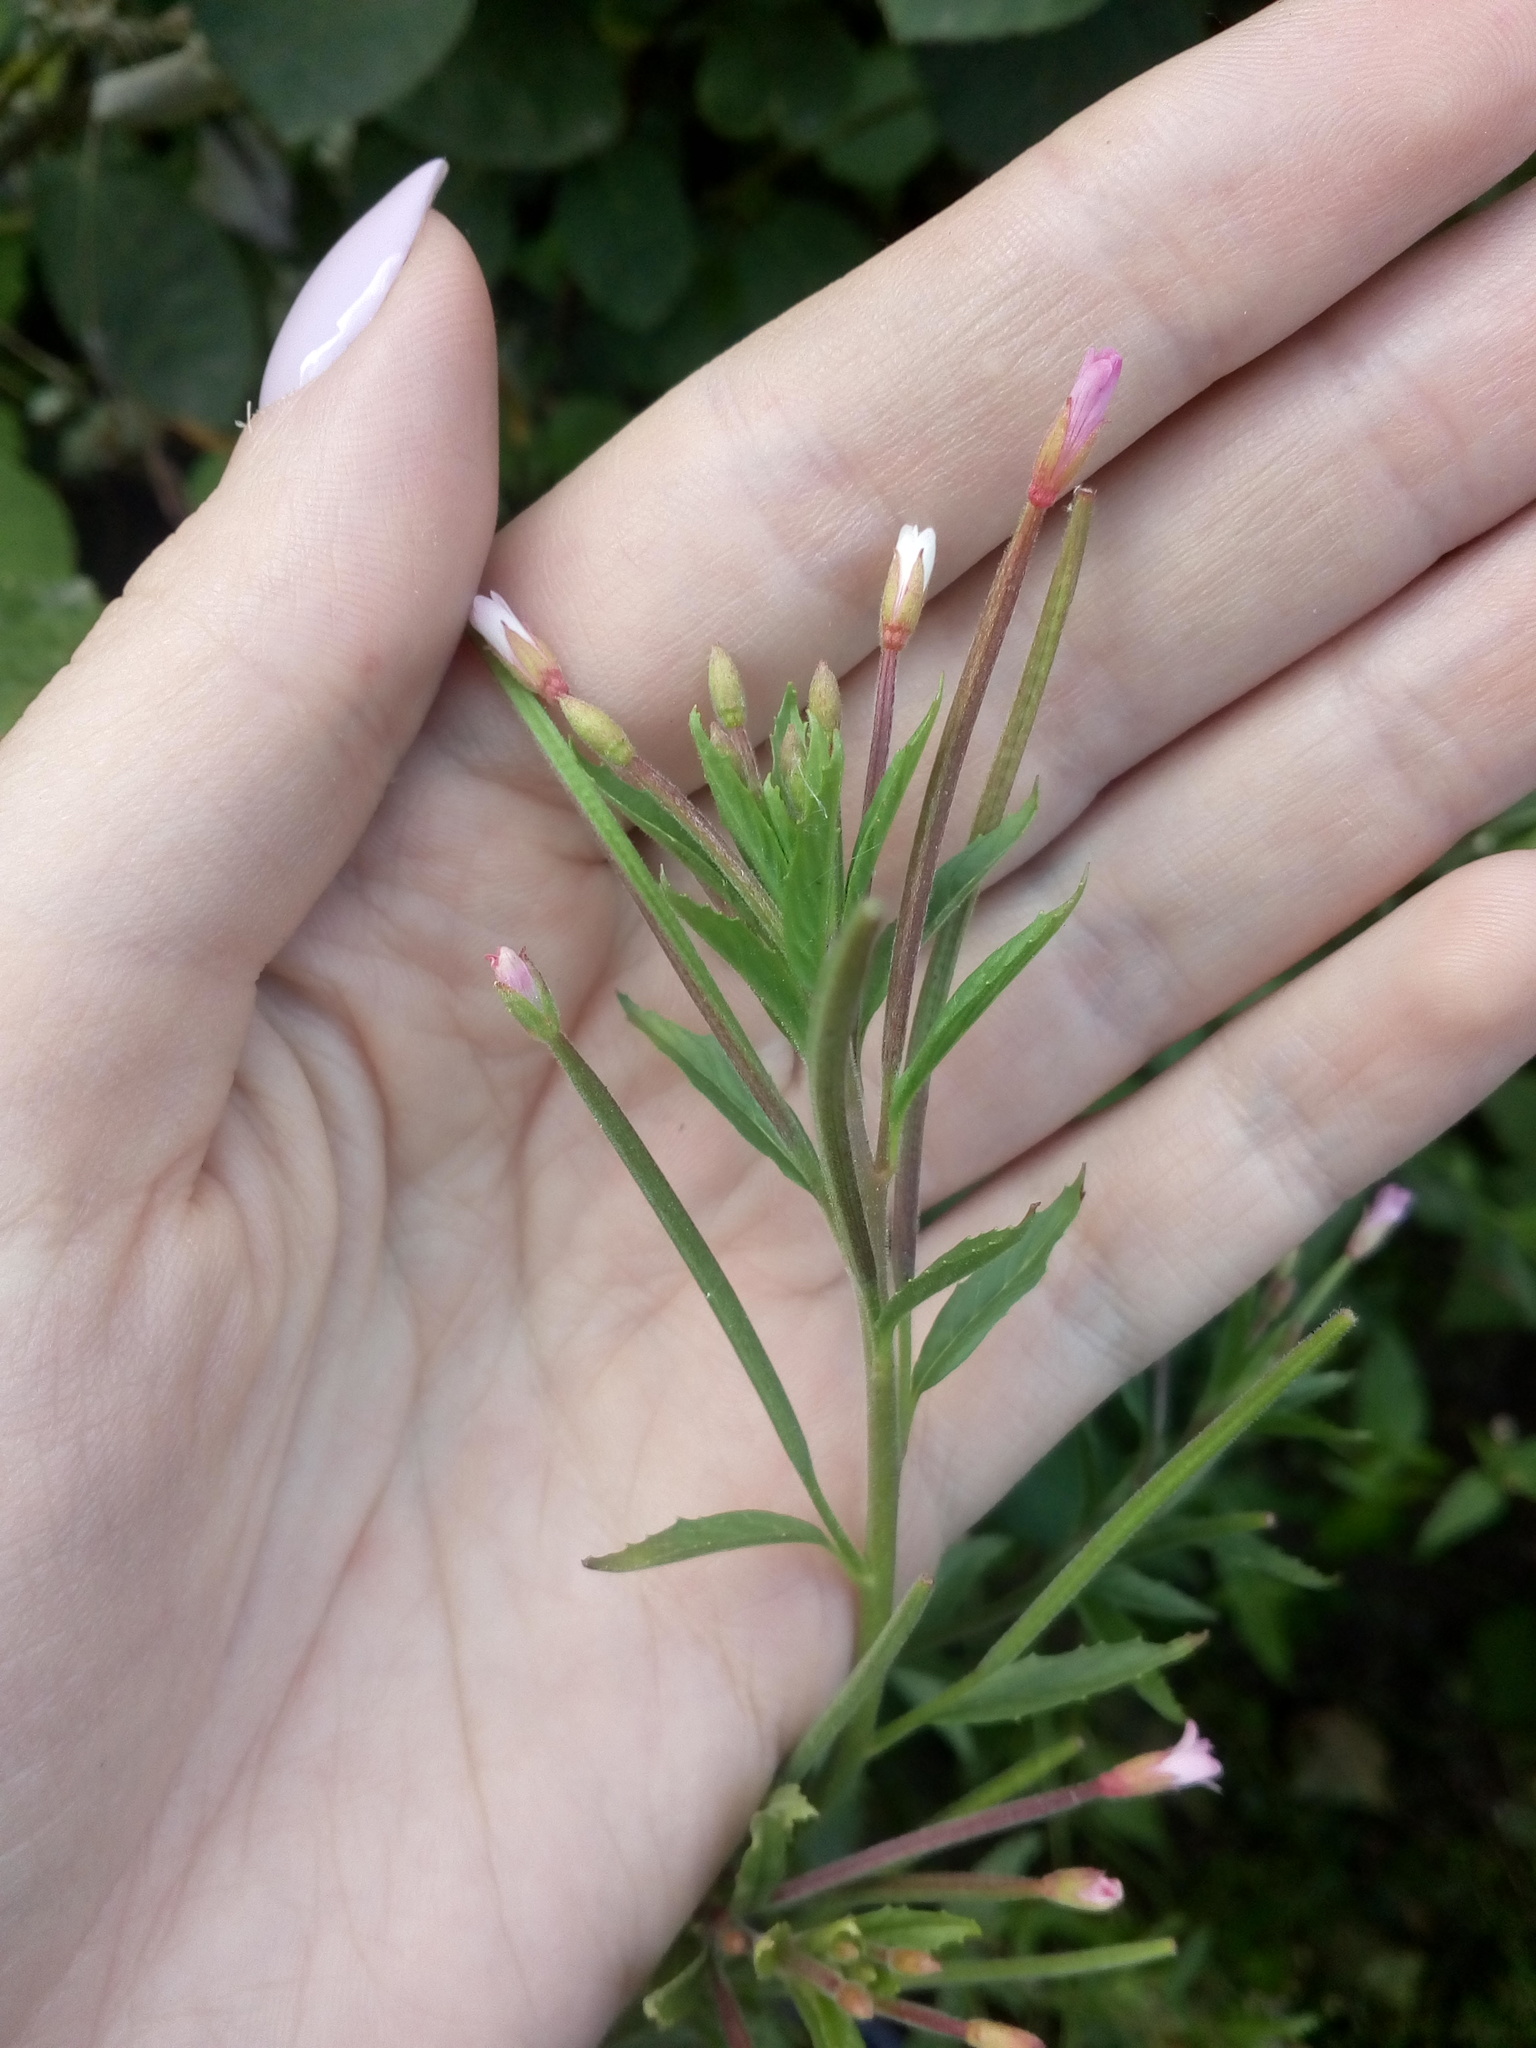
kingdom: Plantae
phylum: Tracheophyta
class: Magnoliopsida
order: Myrtales
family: Onagraceae
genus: Epilobium
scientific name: Epilobium ciliatum
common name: American willowherb
